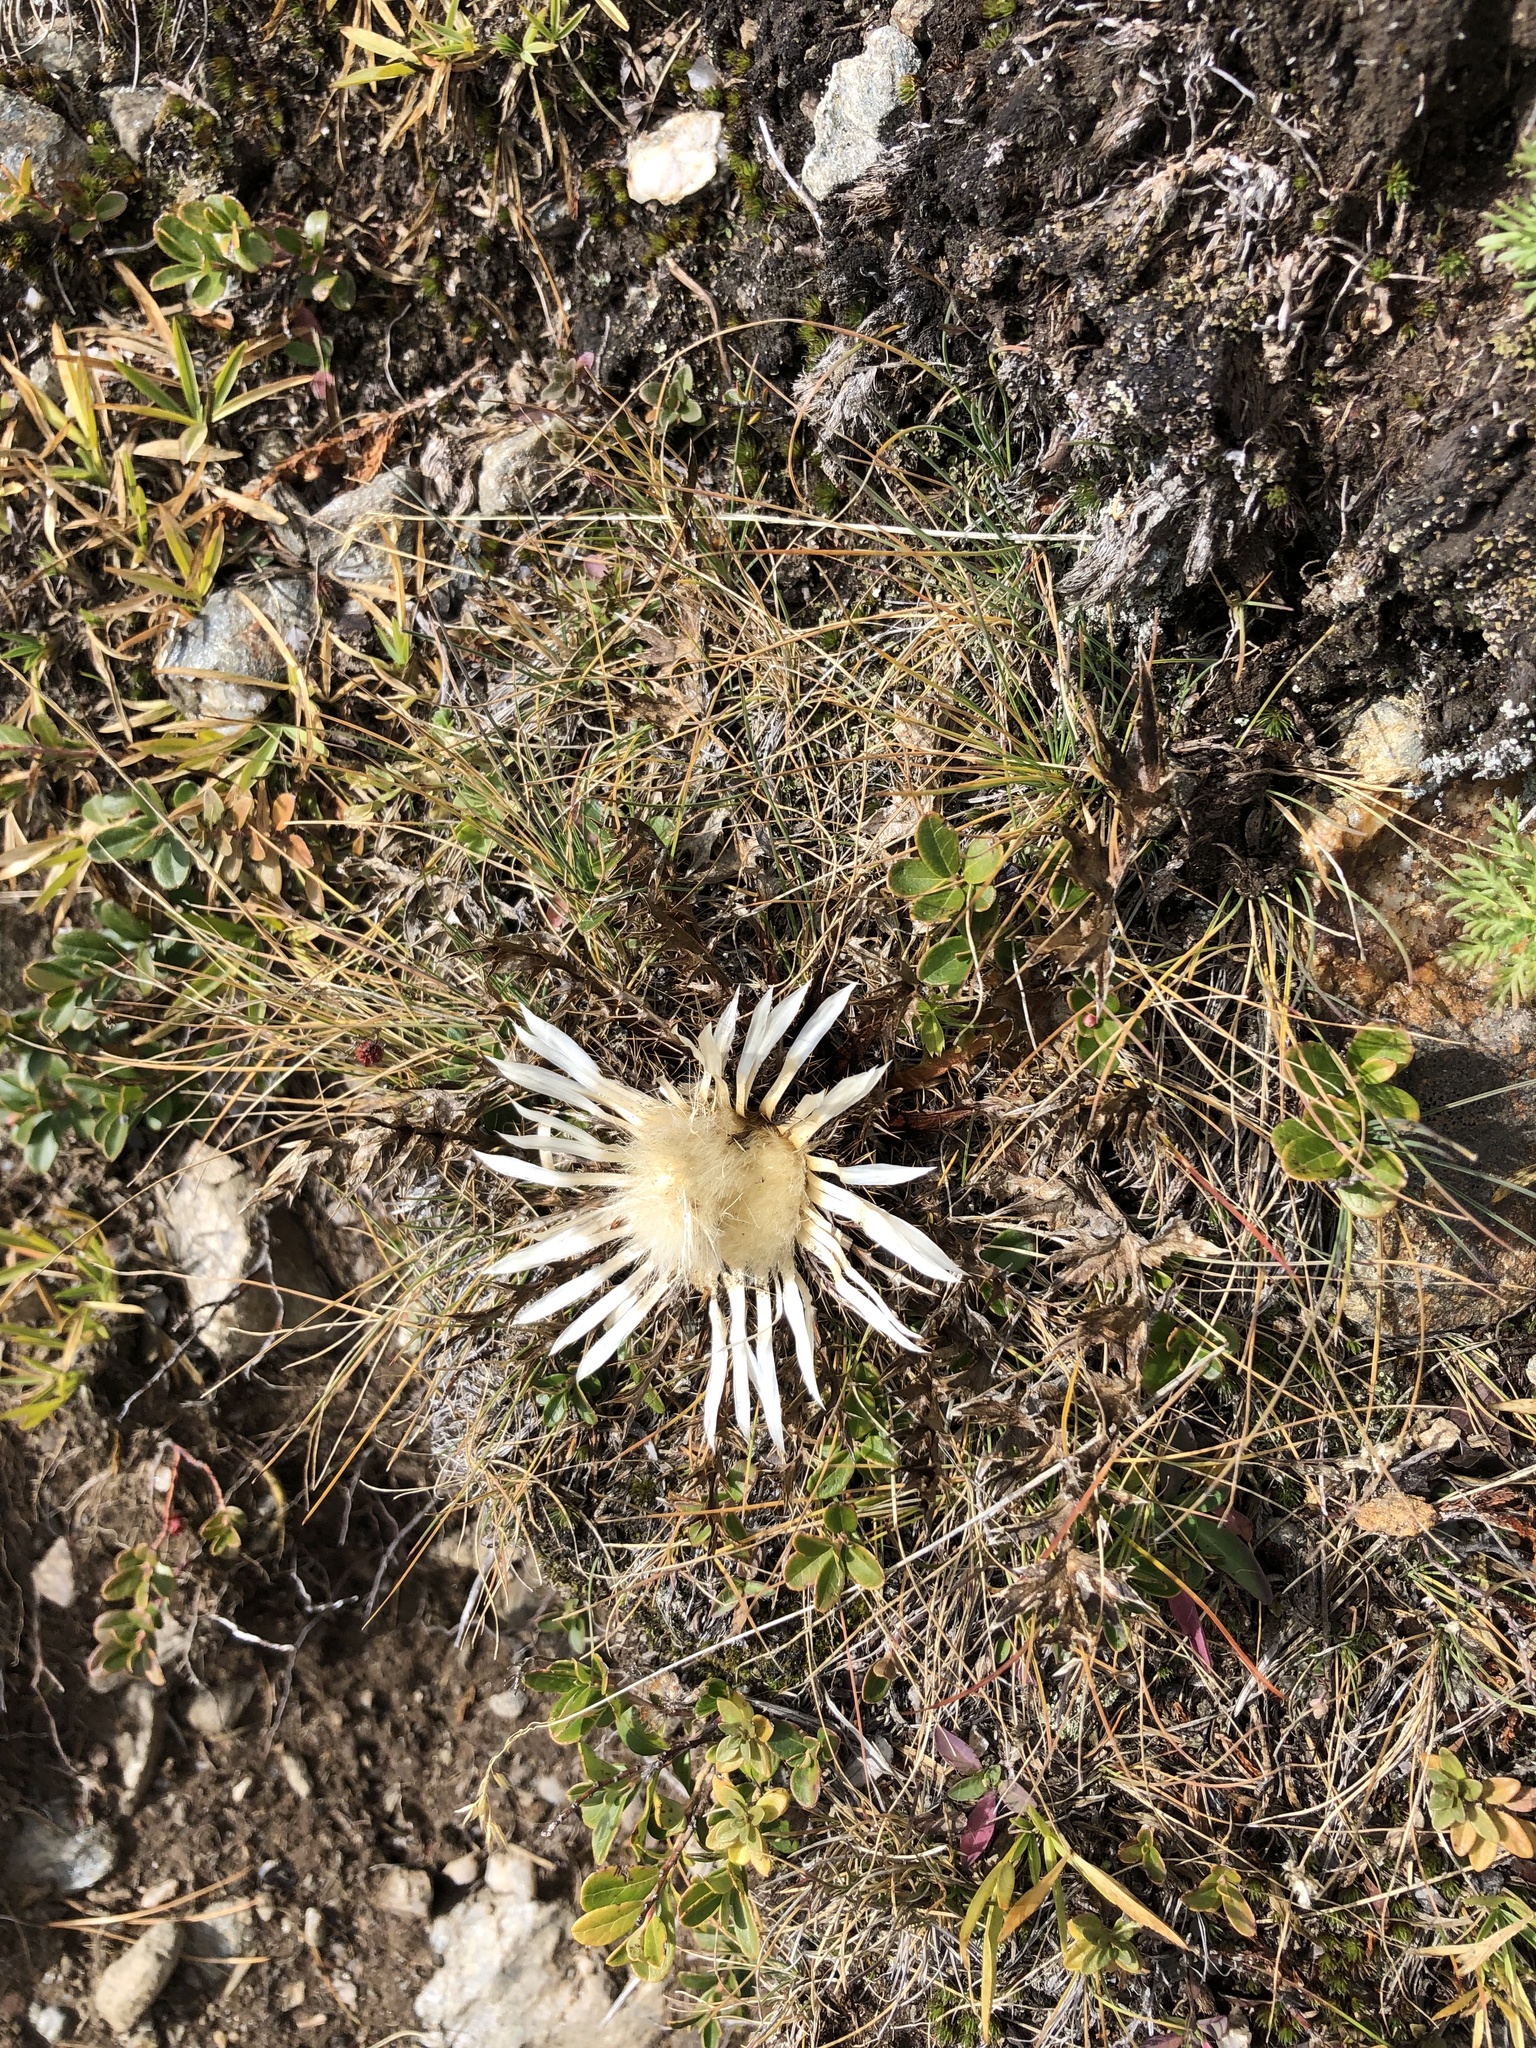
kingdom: Plantae
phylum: Tracheophyta
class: Magnoliopsida
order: Asterales
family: Asteraceae
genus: Carlina
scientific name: Carlina acaulis
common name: Stemless carline thistle
